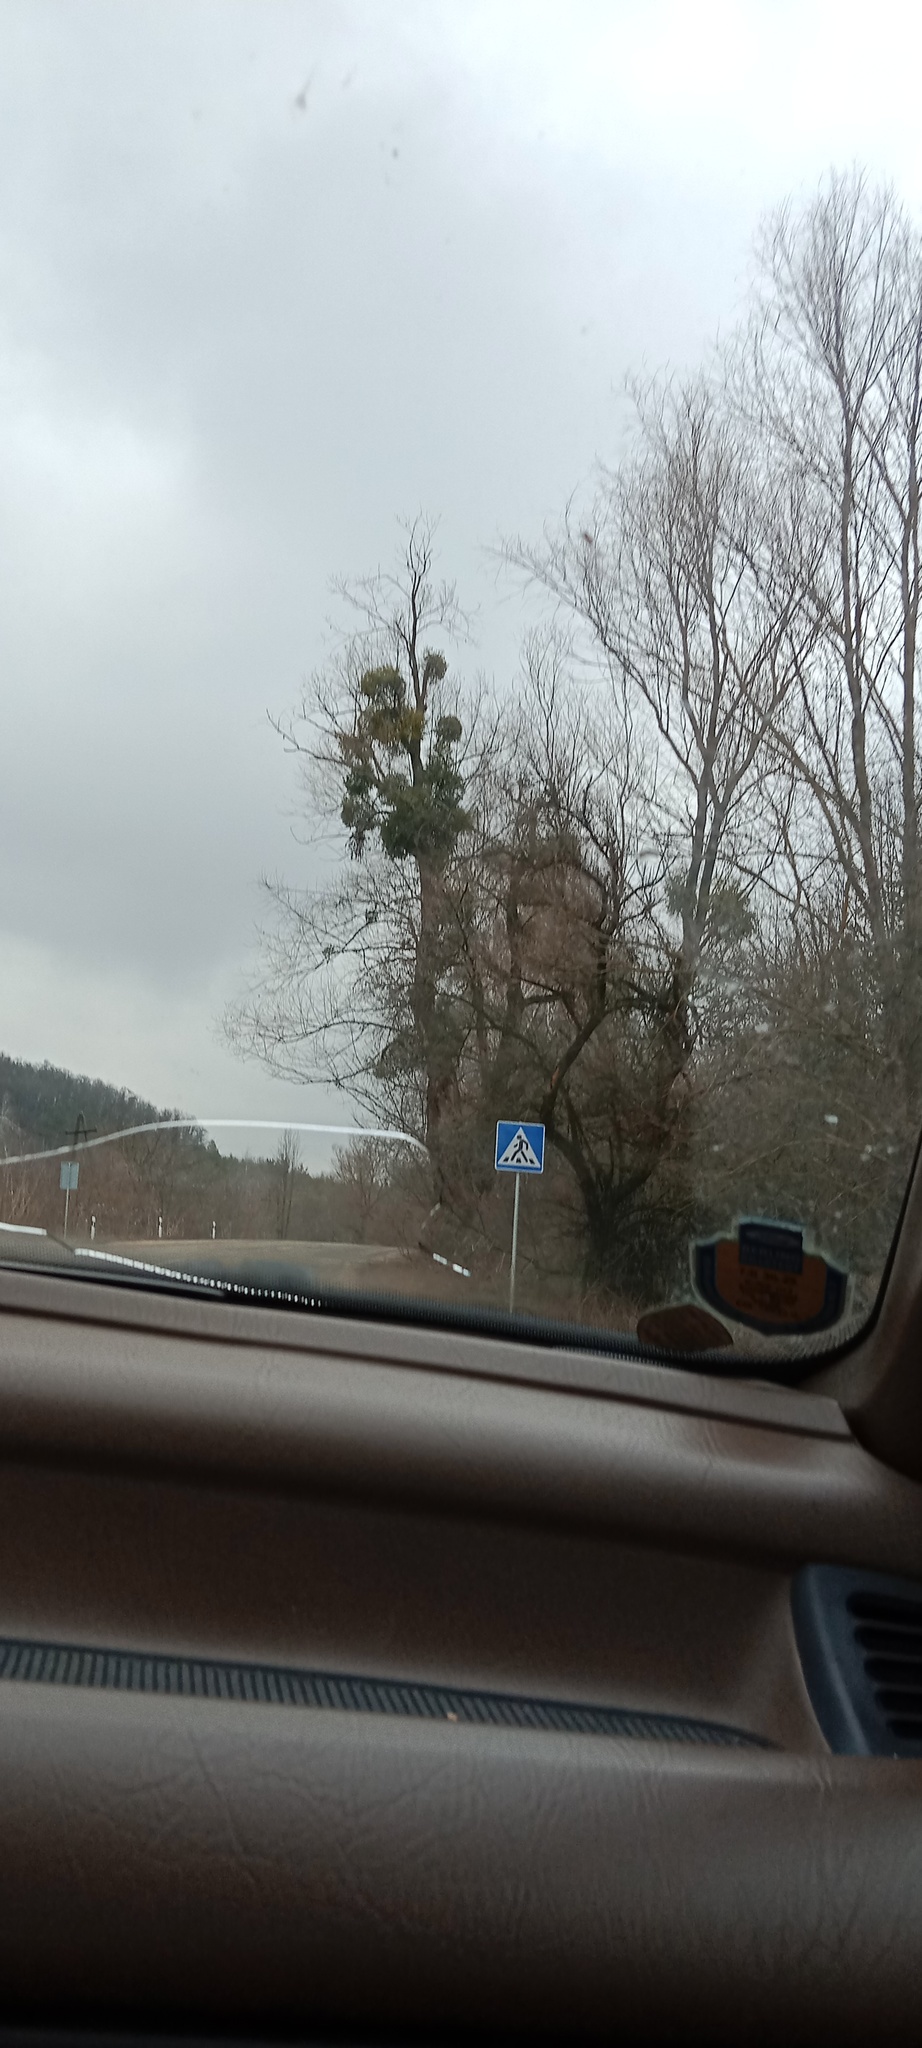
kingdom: Plantae
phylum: Tracheophyta
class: Magnoliopsida
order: Santalales
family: Viscaceae
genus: Viscum
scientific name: Viscum album
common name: Mistletoe
